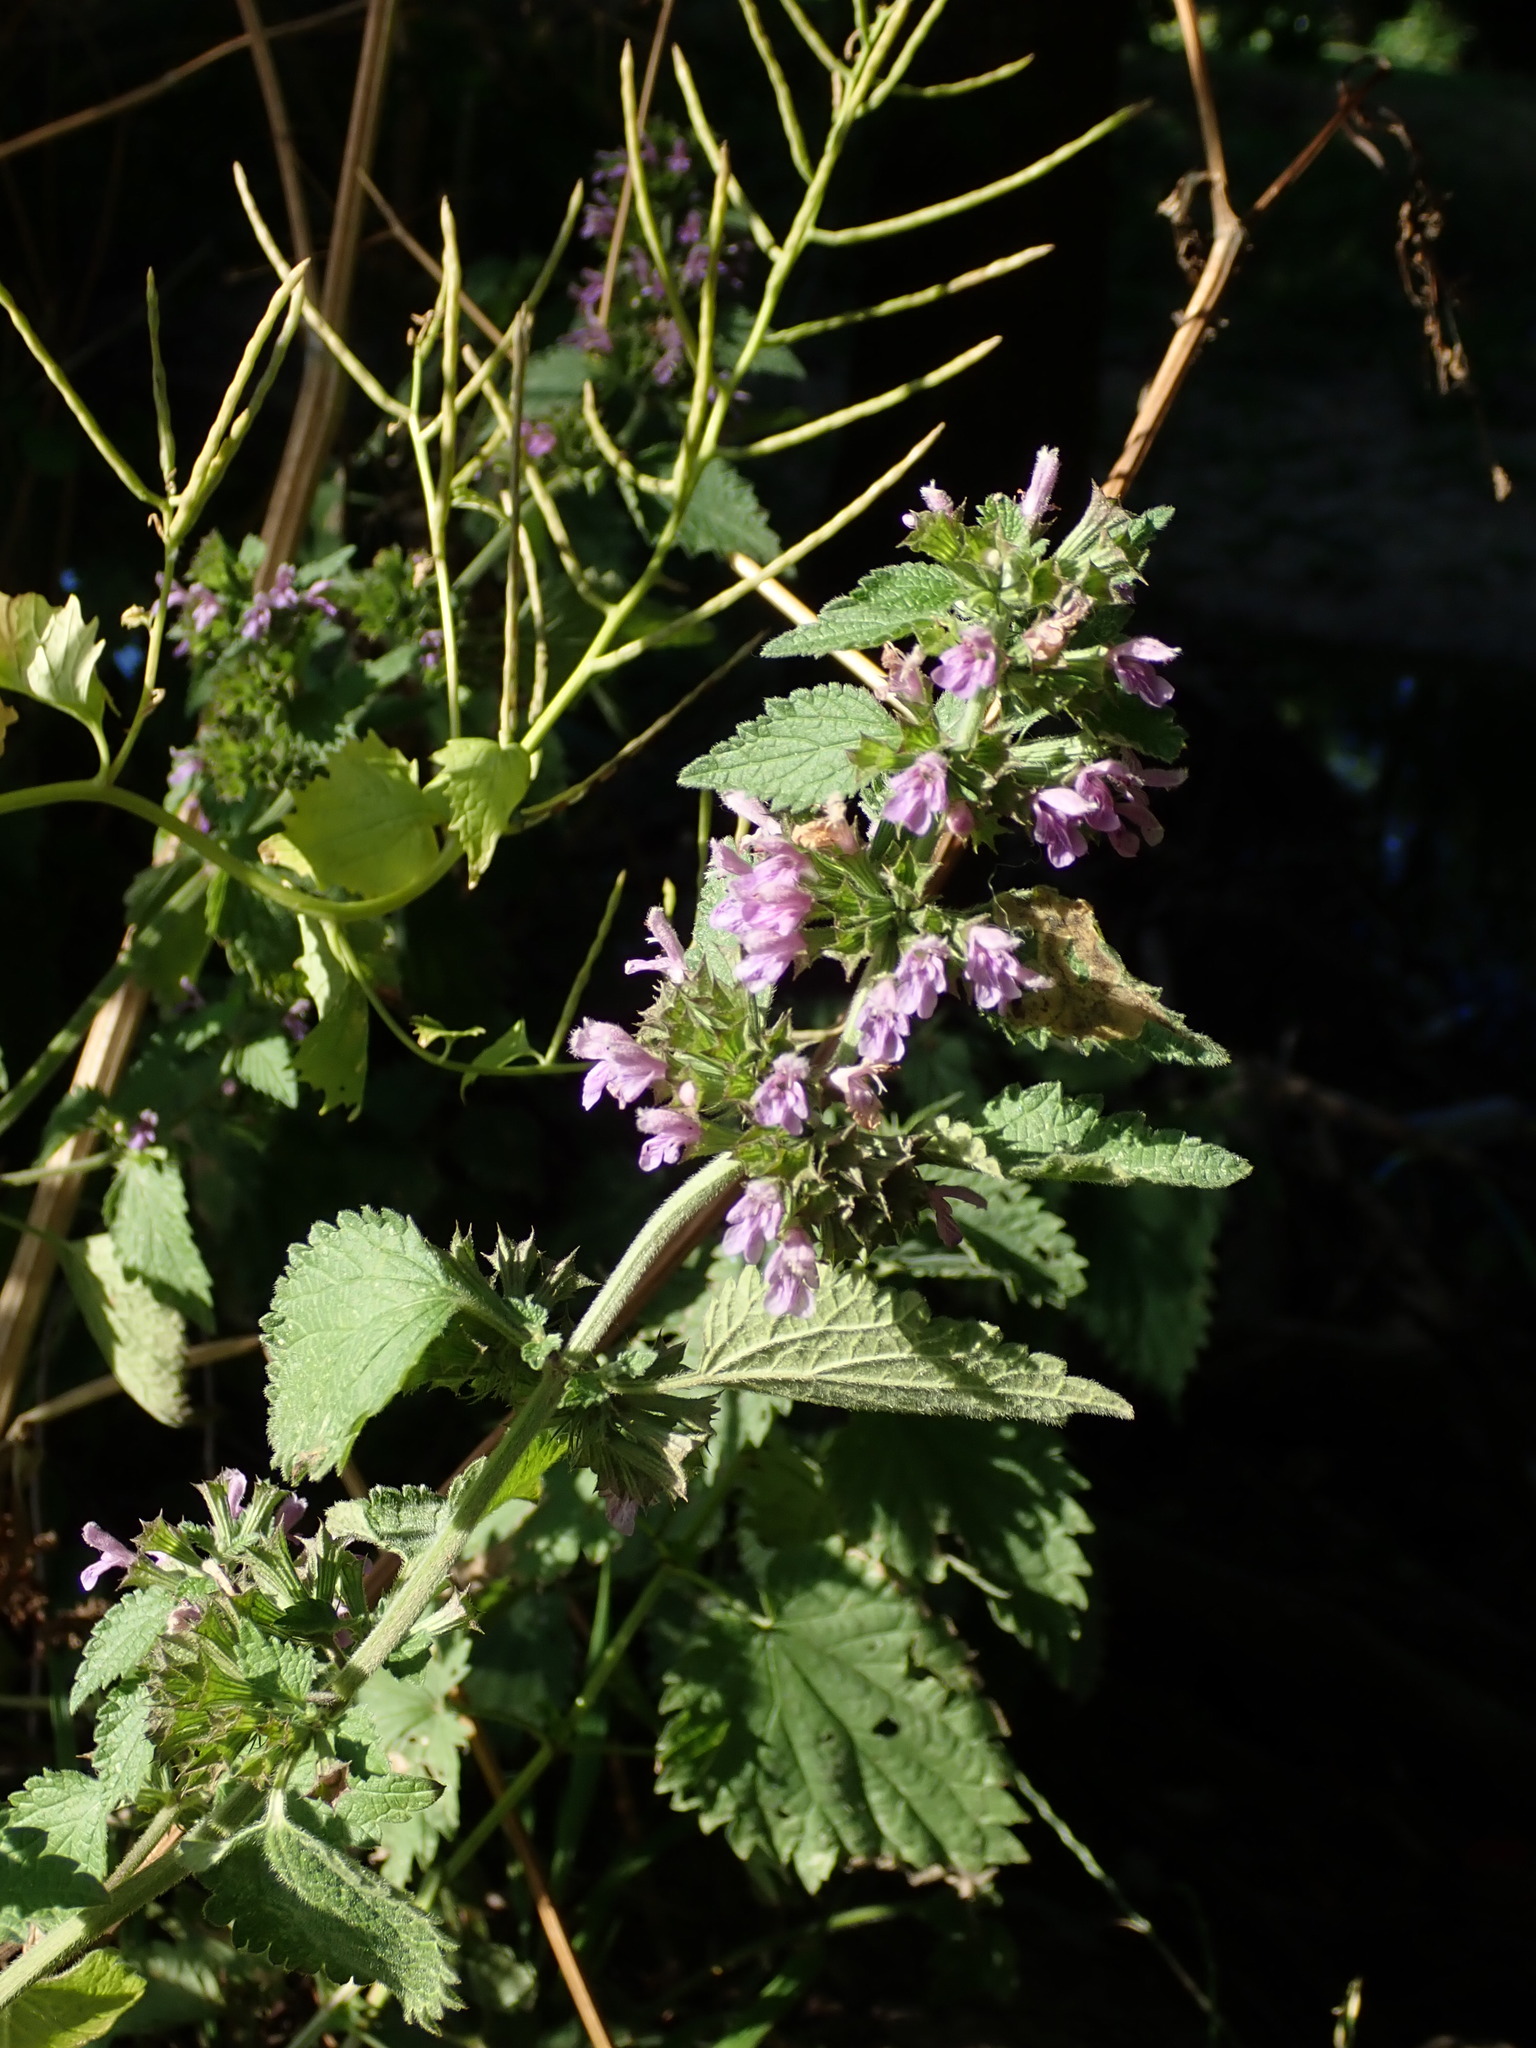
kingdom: Plantae
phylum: Tracheophyta
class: Magnoliopsida
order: Lamiales
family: Lamiaceae
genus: Ballota
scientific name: Ballota nigra
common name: Black horehound
